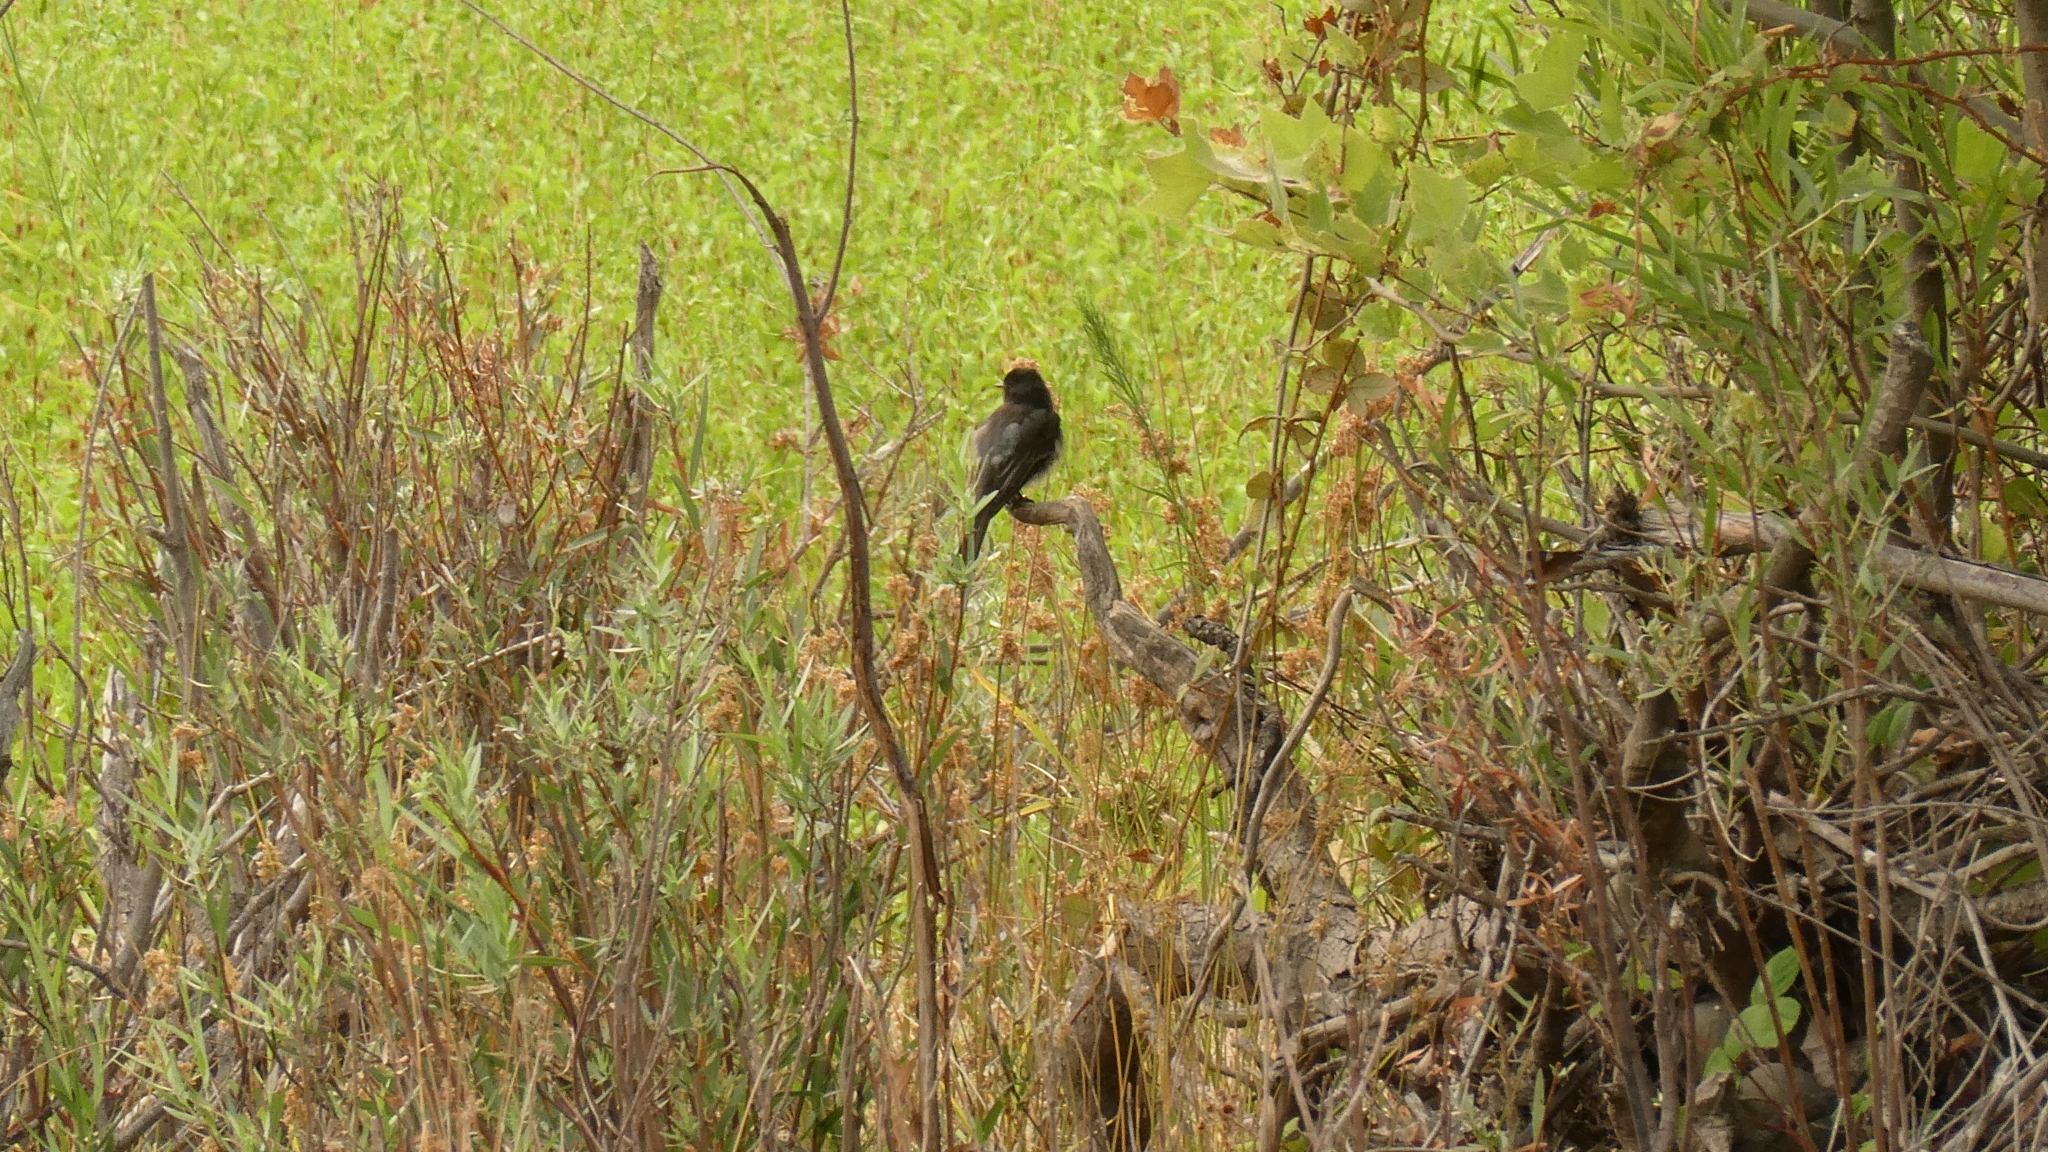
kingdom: Animalia
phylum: Chordata
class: Aves
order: Passeriformes
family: Tyrannidae
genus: Sayornis
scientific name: Sayornis nigricans
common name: Black phoebe
